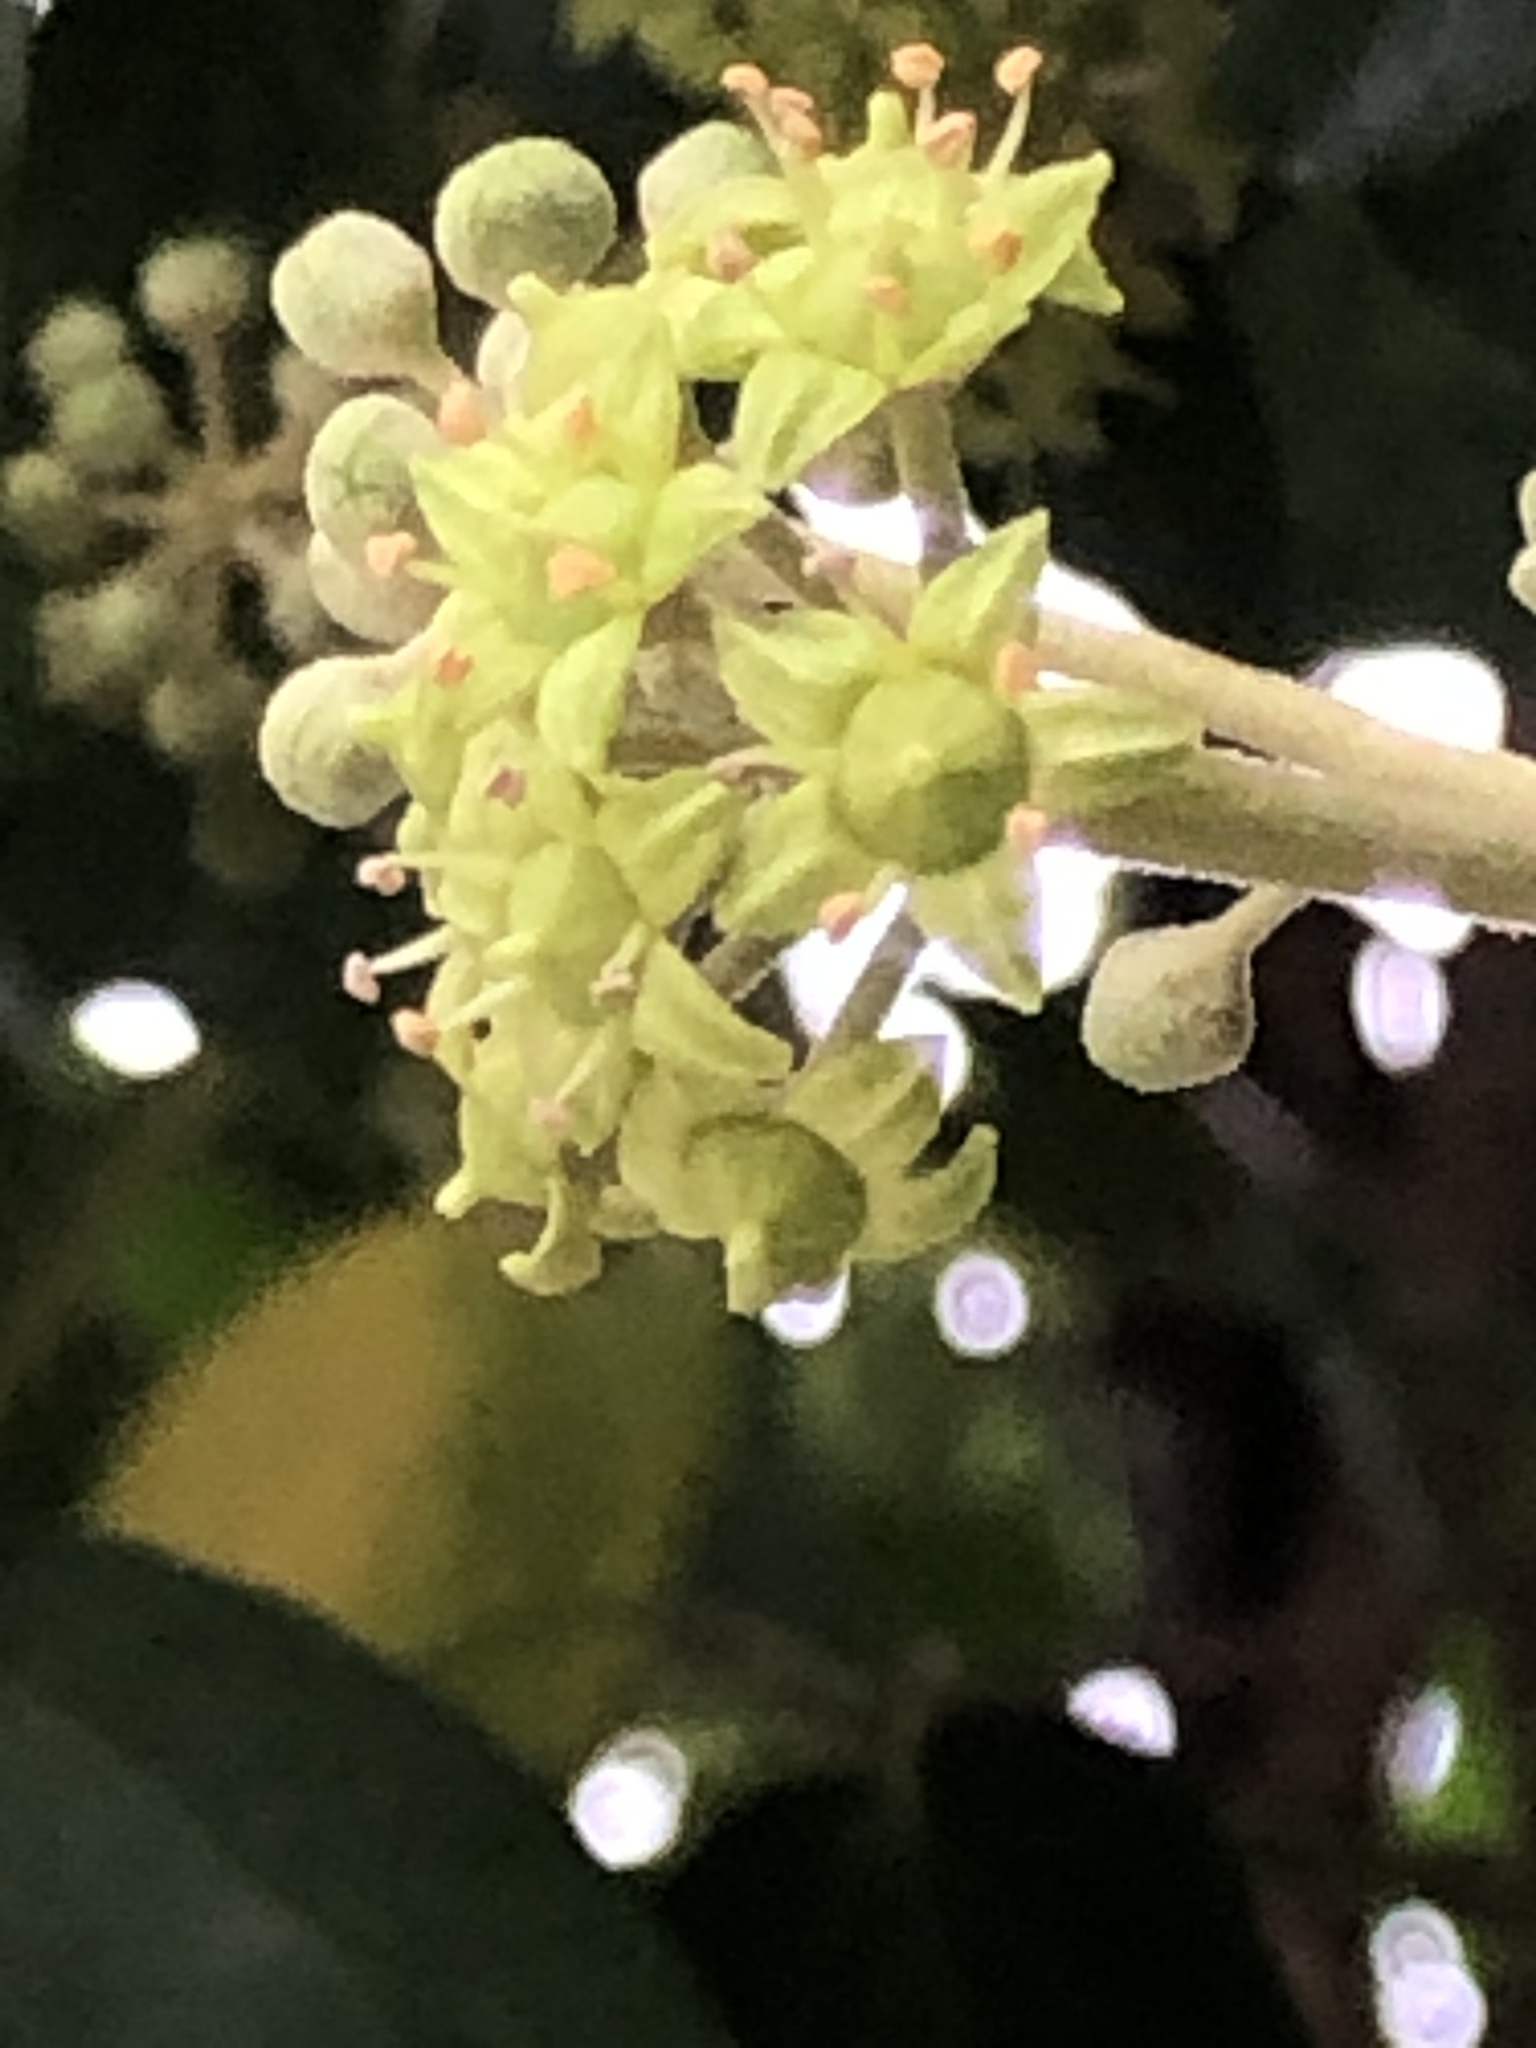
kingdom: Plantae
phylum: Tracheophyta
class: Magnoliopsida
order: Apiales
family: Araliaceae
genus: Hedera
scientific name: Hedera helix
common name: Ivy
